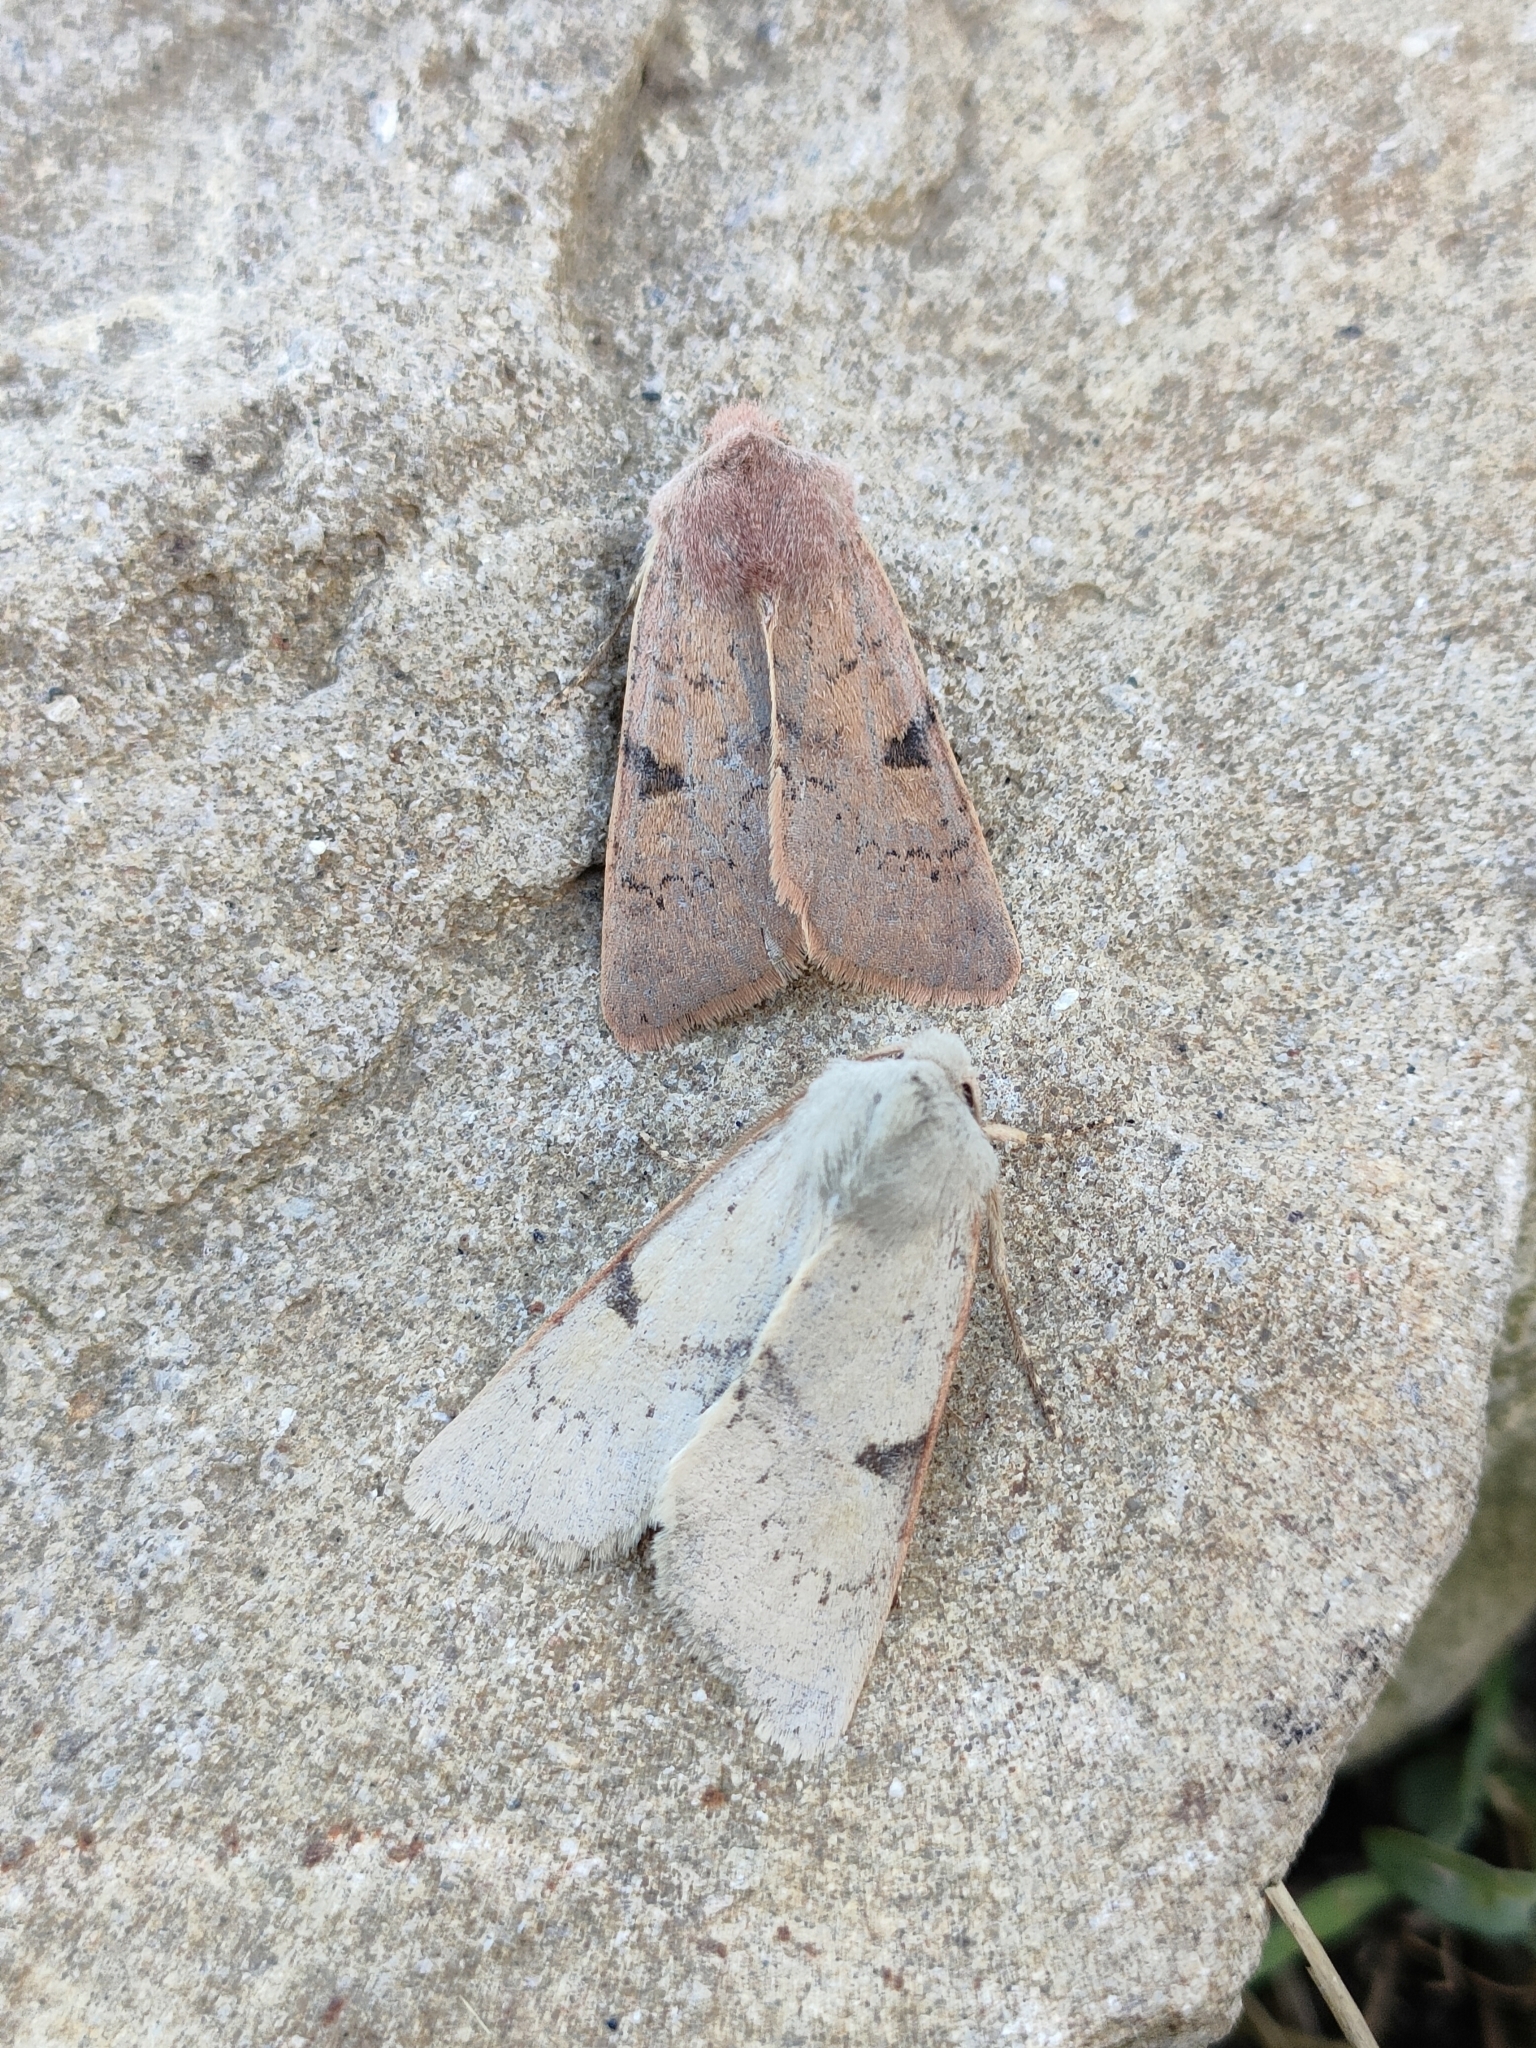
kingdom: Animalia
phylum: Arthropoda
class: Insecta
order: Lepidoptera
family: Noctuidae
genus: Ammopolia
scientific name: Ammopolia witzenmanni
